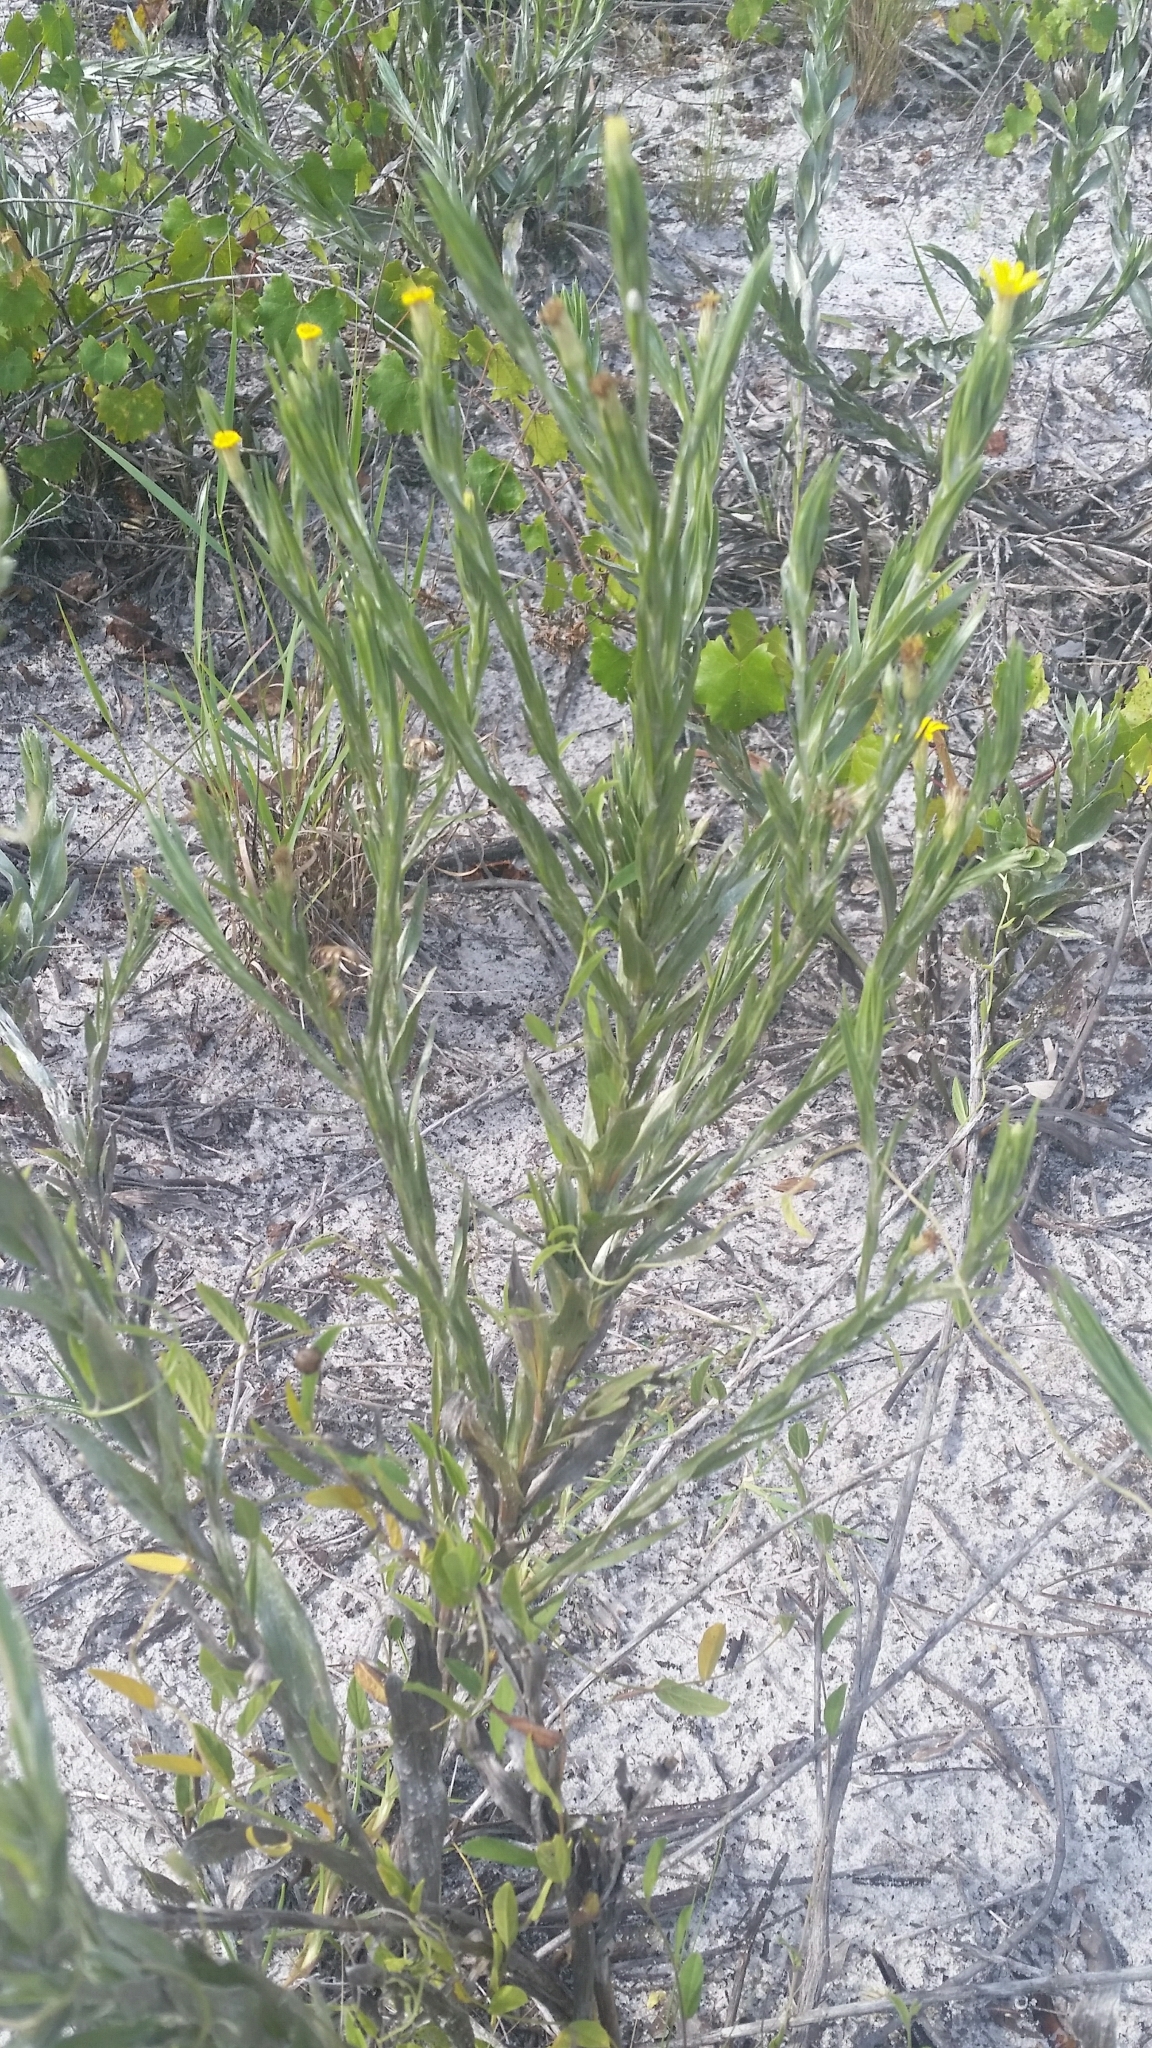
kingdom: Plantae
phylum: Tracheophyta
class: Magnoliopsida
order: Asterales
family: Asteraceae
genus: Pityopsis
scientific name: Pityopsis latifolia
